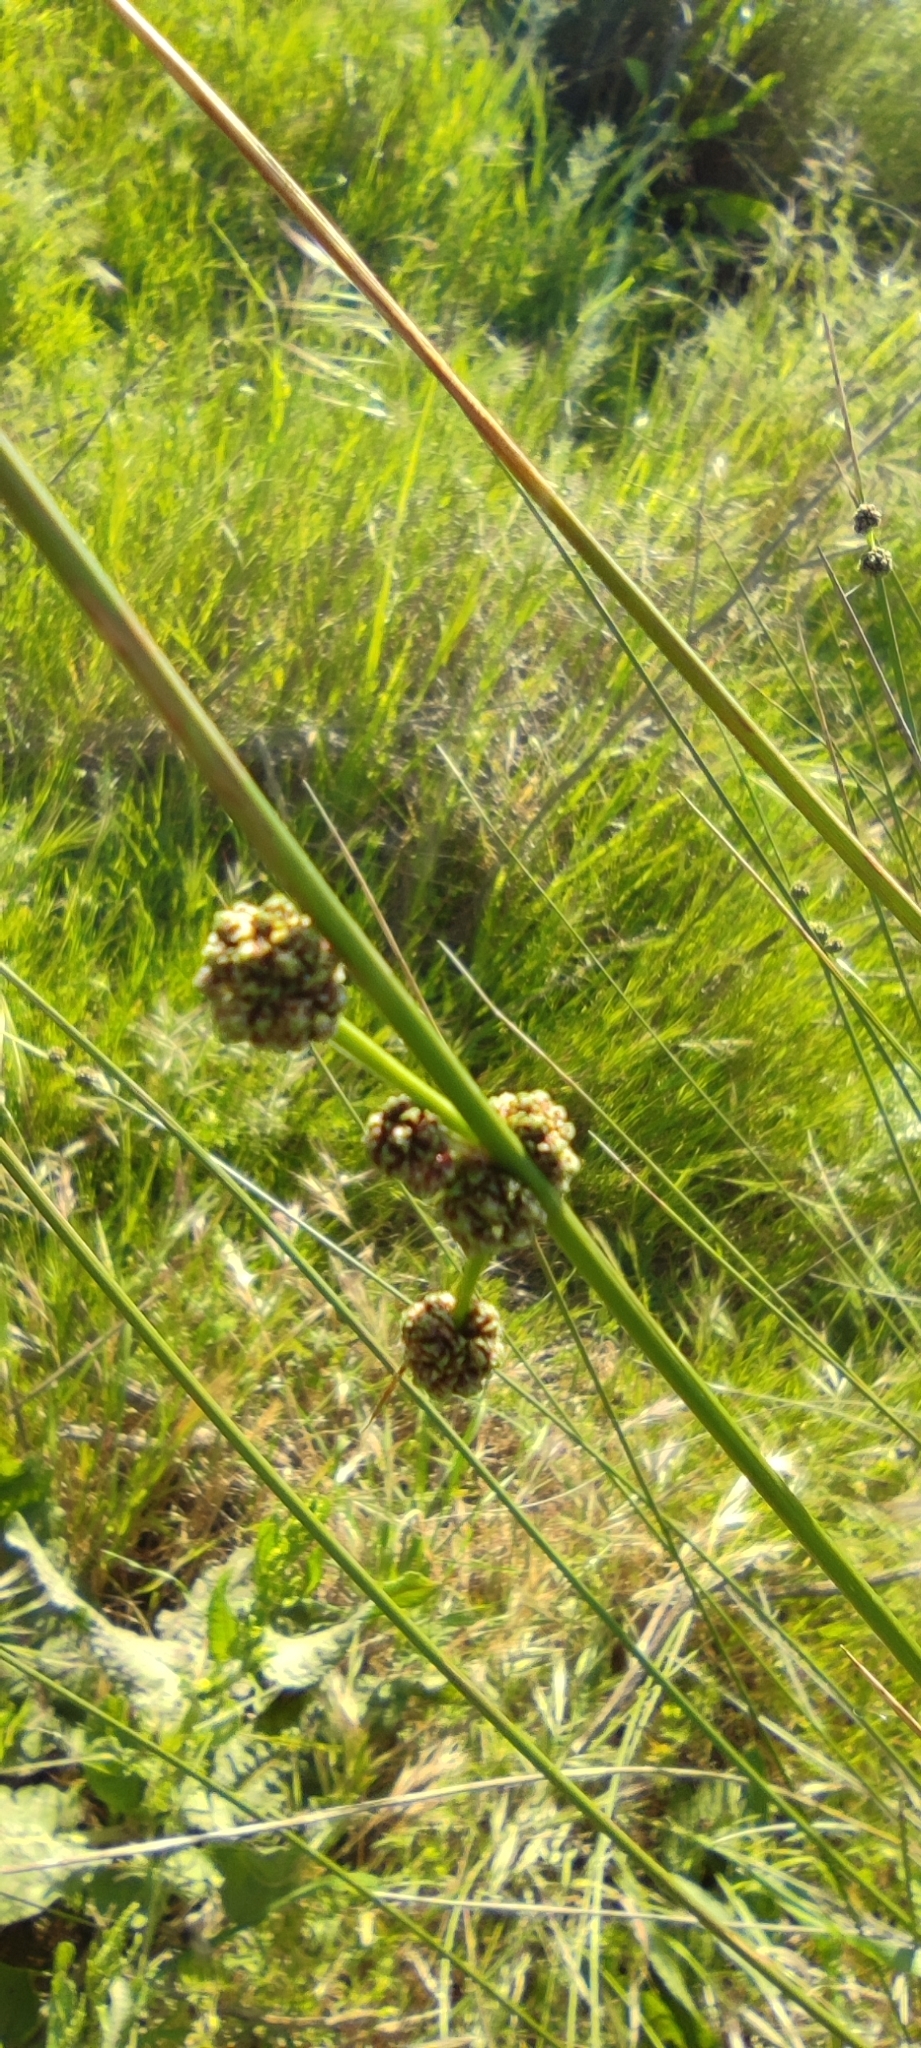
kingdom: Plantae
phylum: Tracheophyta
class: Liliopsida
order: Poales
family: Cyperaceae
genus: Scirpoides
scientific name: Scirpoides holoschoenus
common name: Round-headed club-rush
